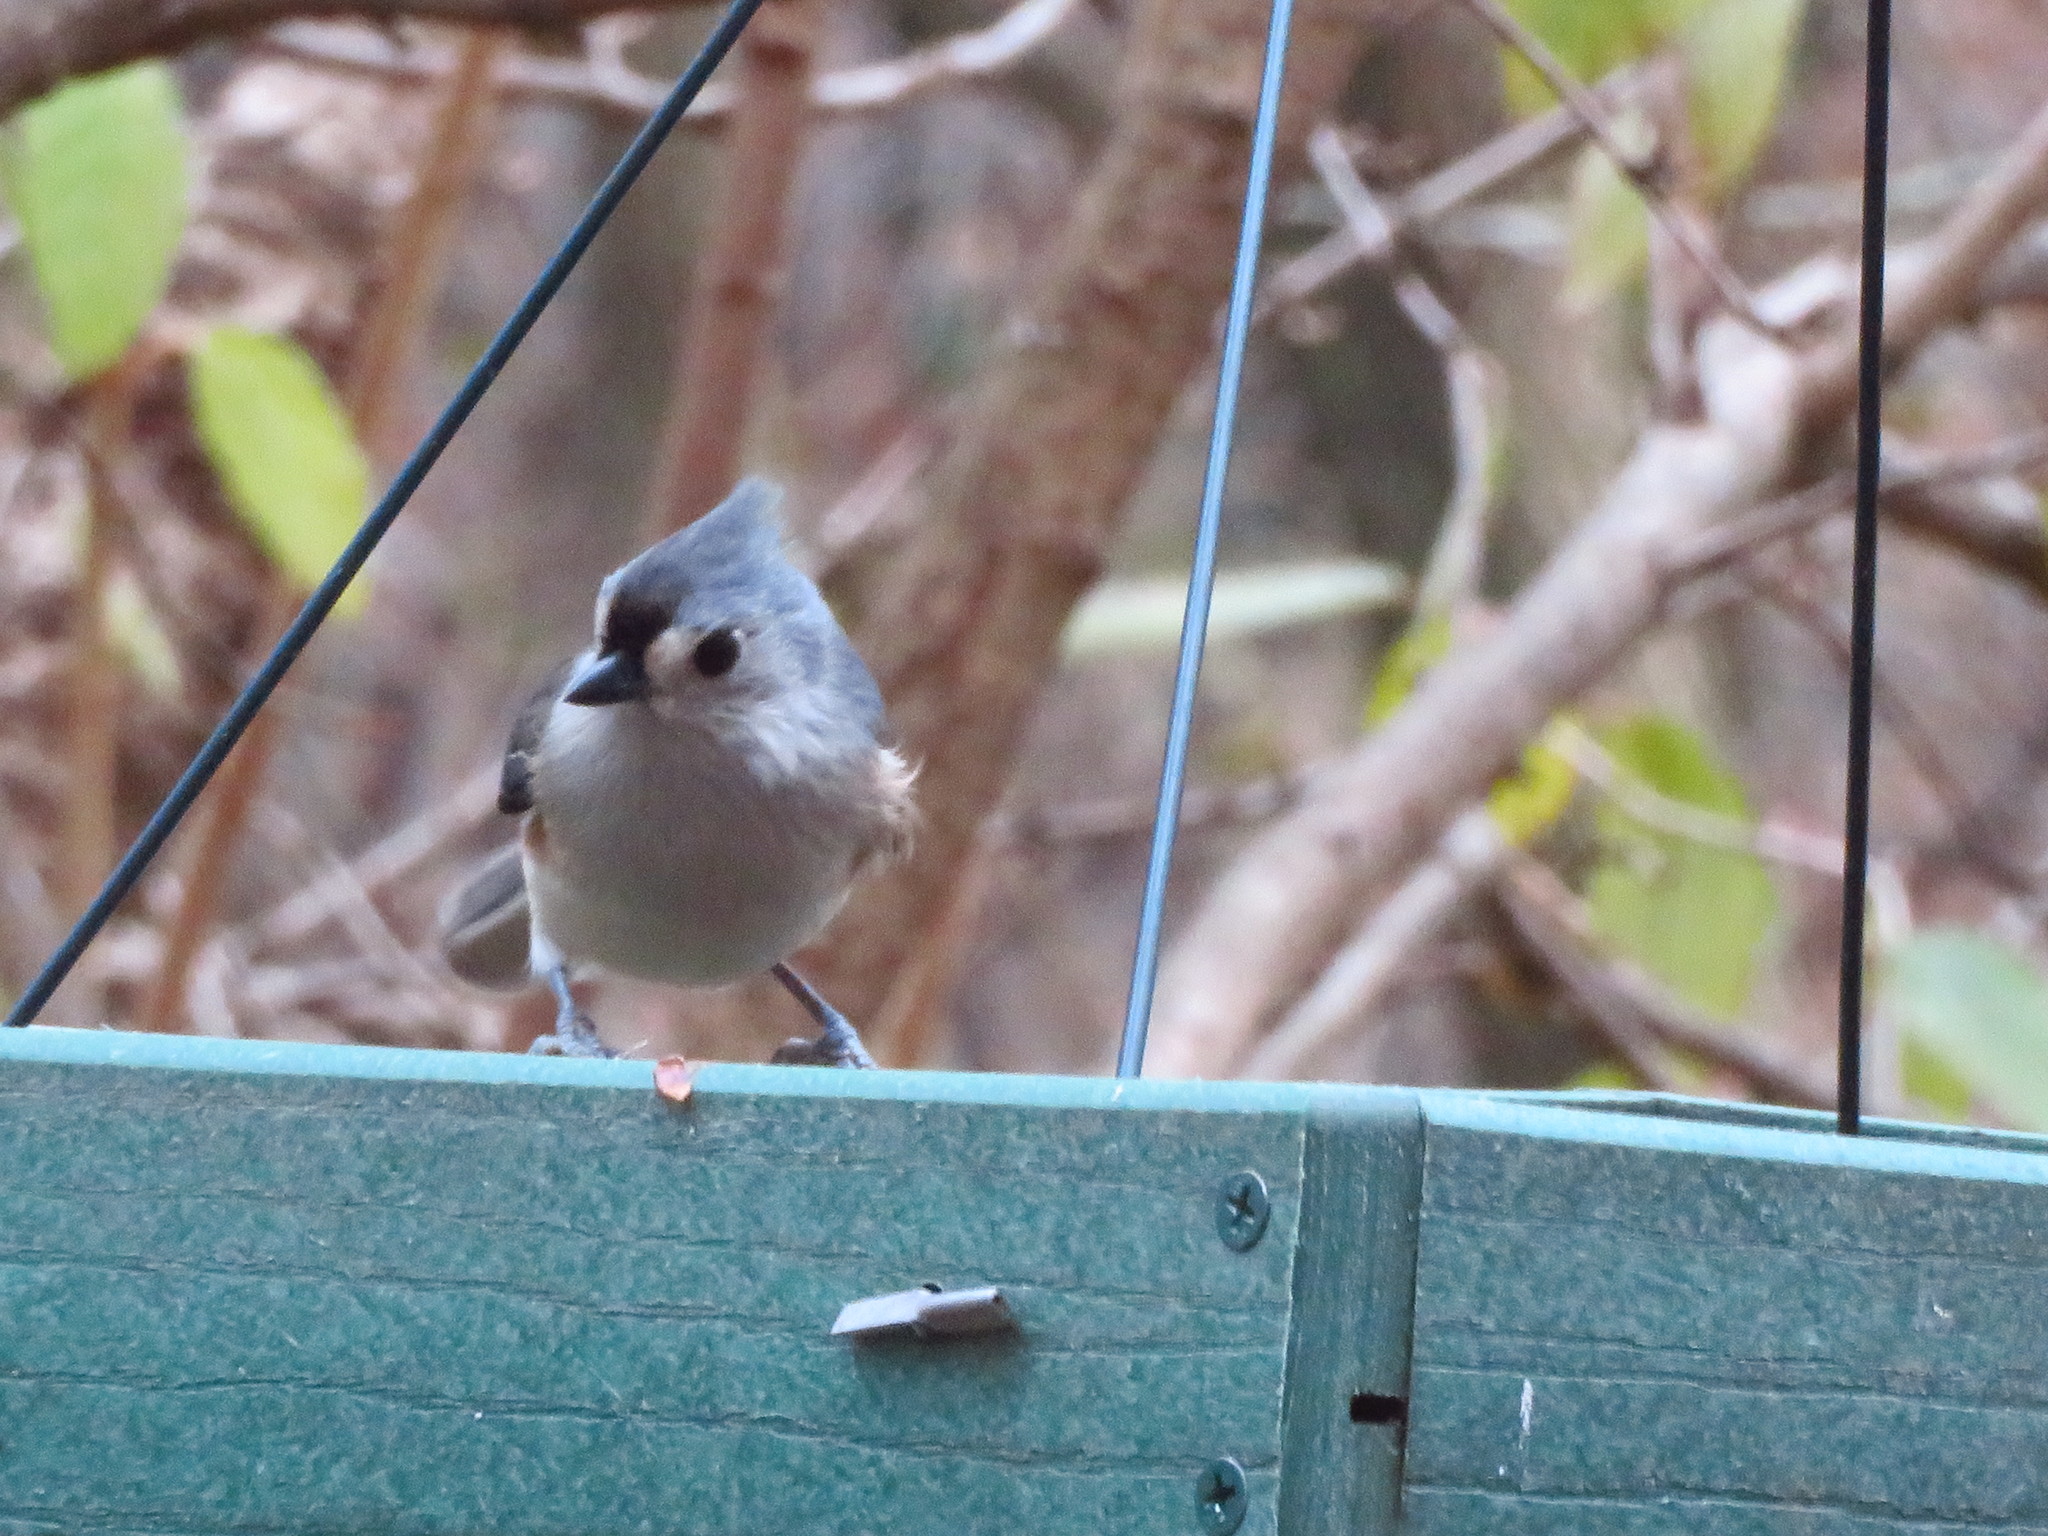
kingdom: Animalia
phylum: Chordata
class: Aves
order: Passeriformes
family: Paridae
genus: Baeolophus
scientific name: Baeolophus bicolor
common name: Tufted titmouse
